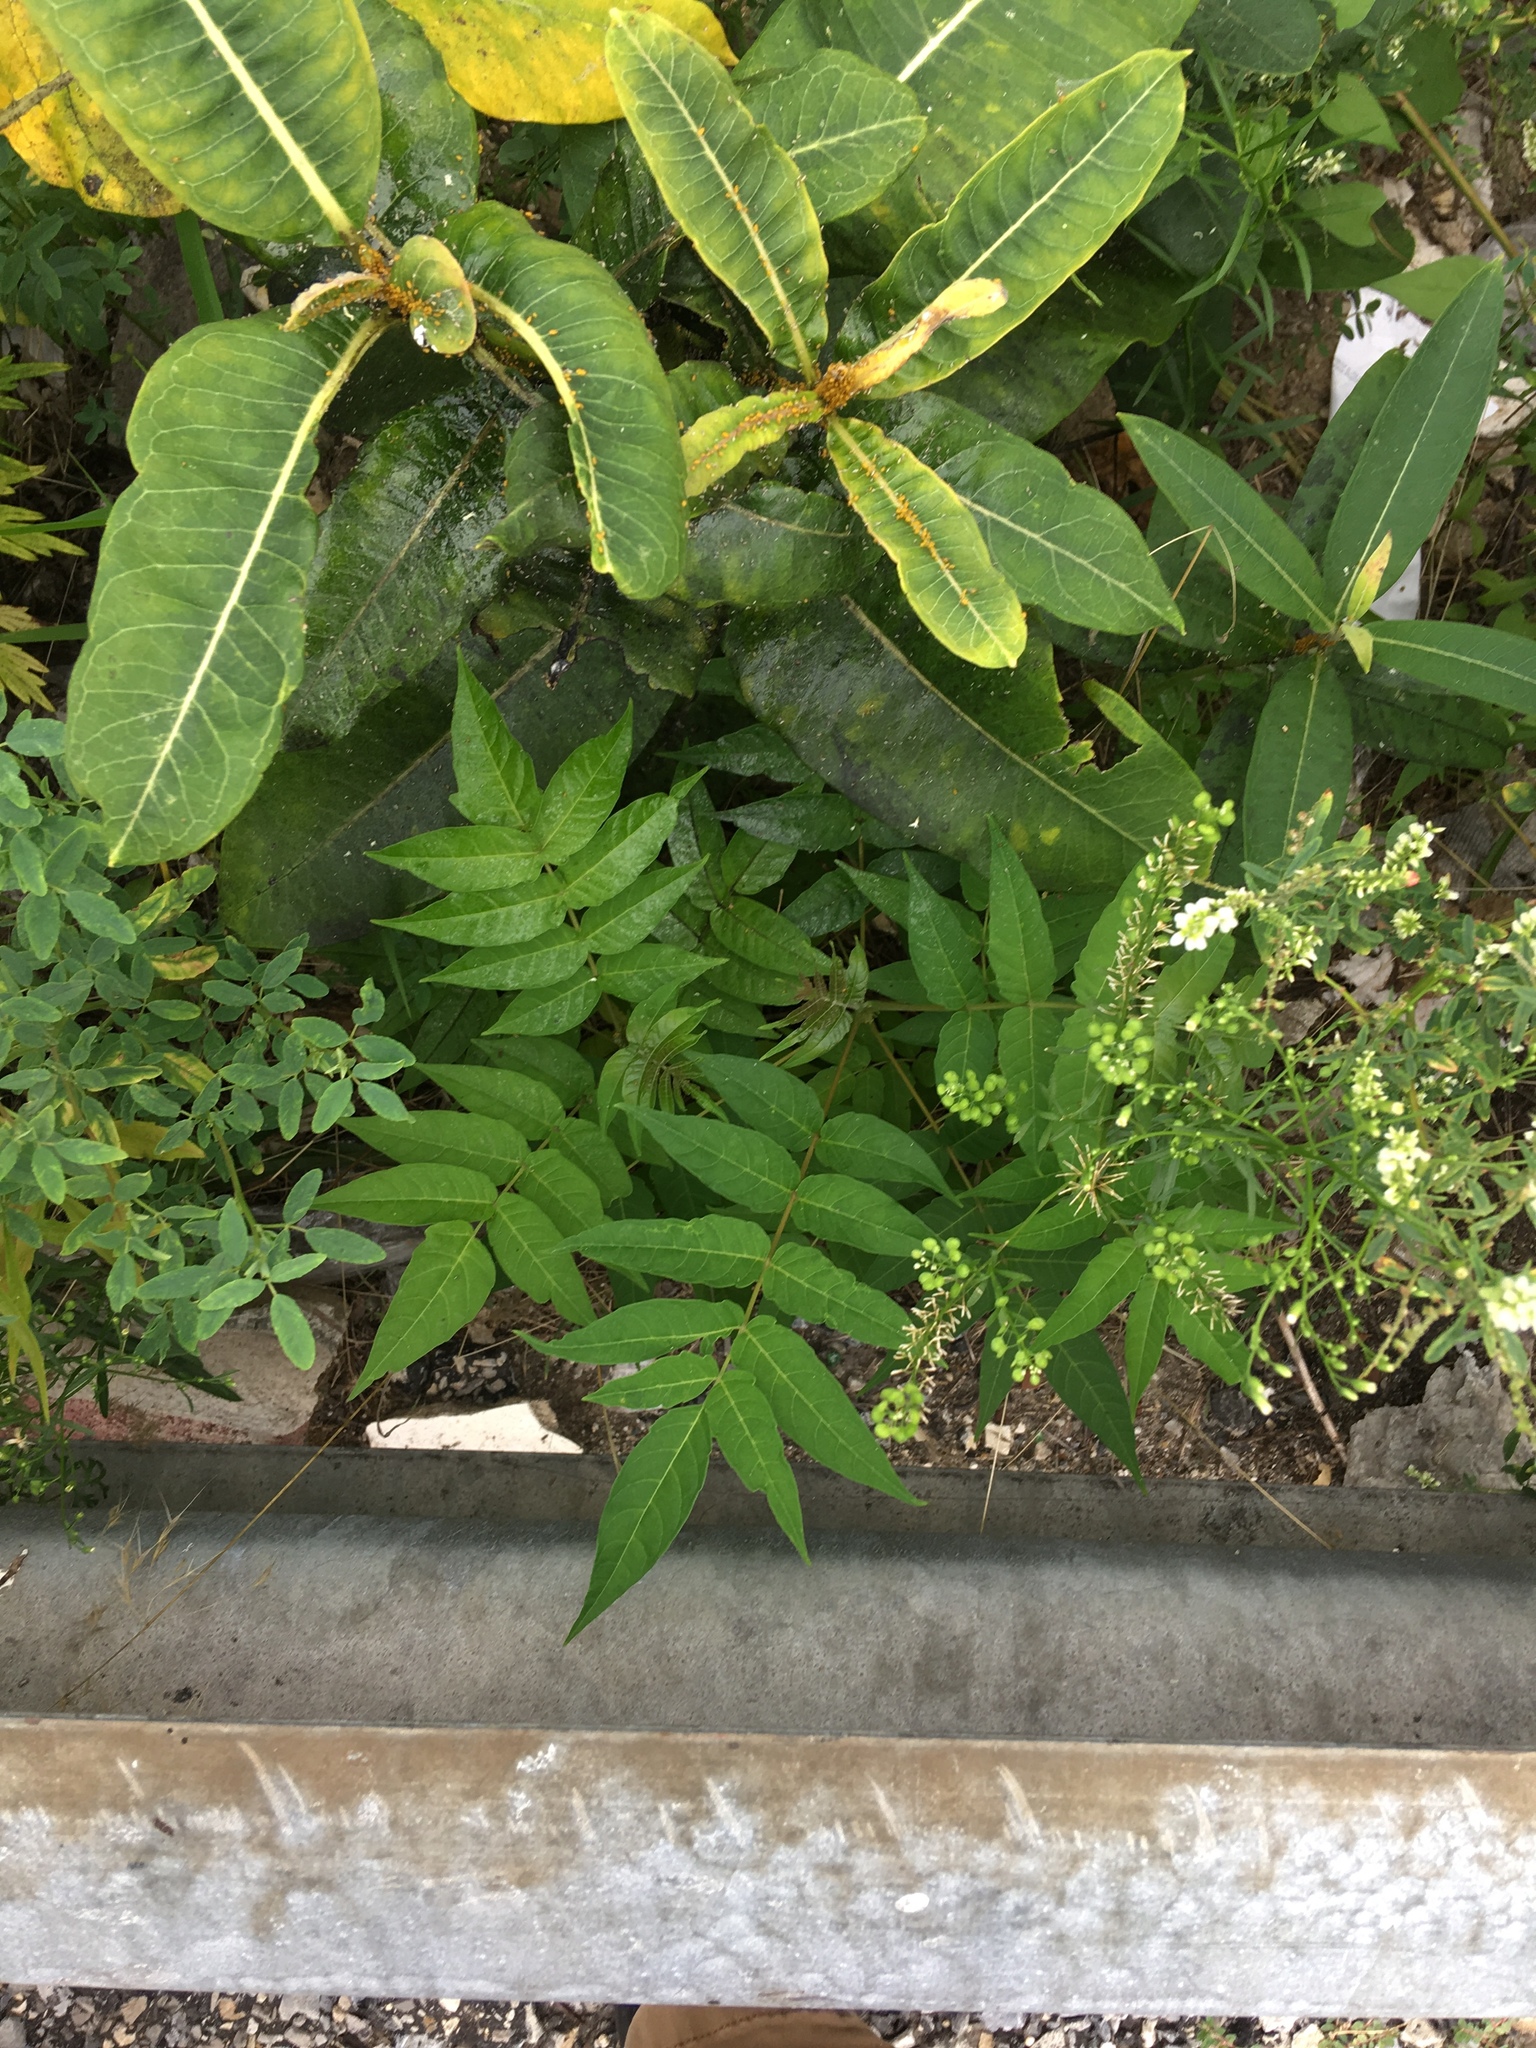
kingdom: Plantae
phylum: Tracheophyta
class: Magnoliopsida
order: Sapindales
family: Simaroubaceae
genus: Ailanthus
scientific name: Ailanthus altissima
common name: Tree-of-heaven
